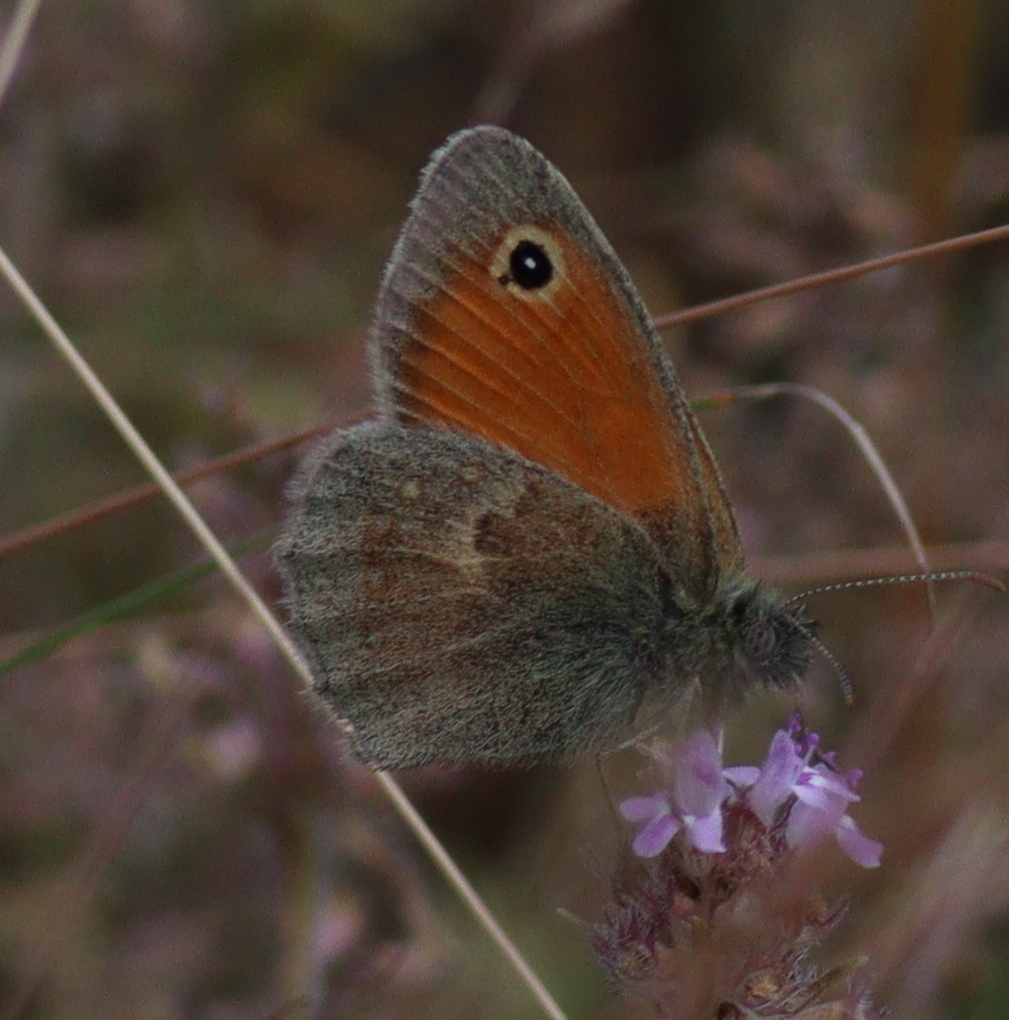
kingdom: Animalia
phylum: Arthropoda
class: Insecta
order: Lepidoptera
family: Nymphalidae
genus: Coenonympha
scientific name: Coenonympha pamphilus
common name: Small heath
